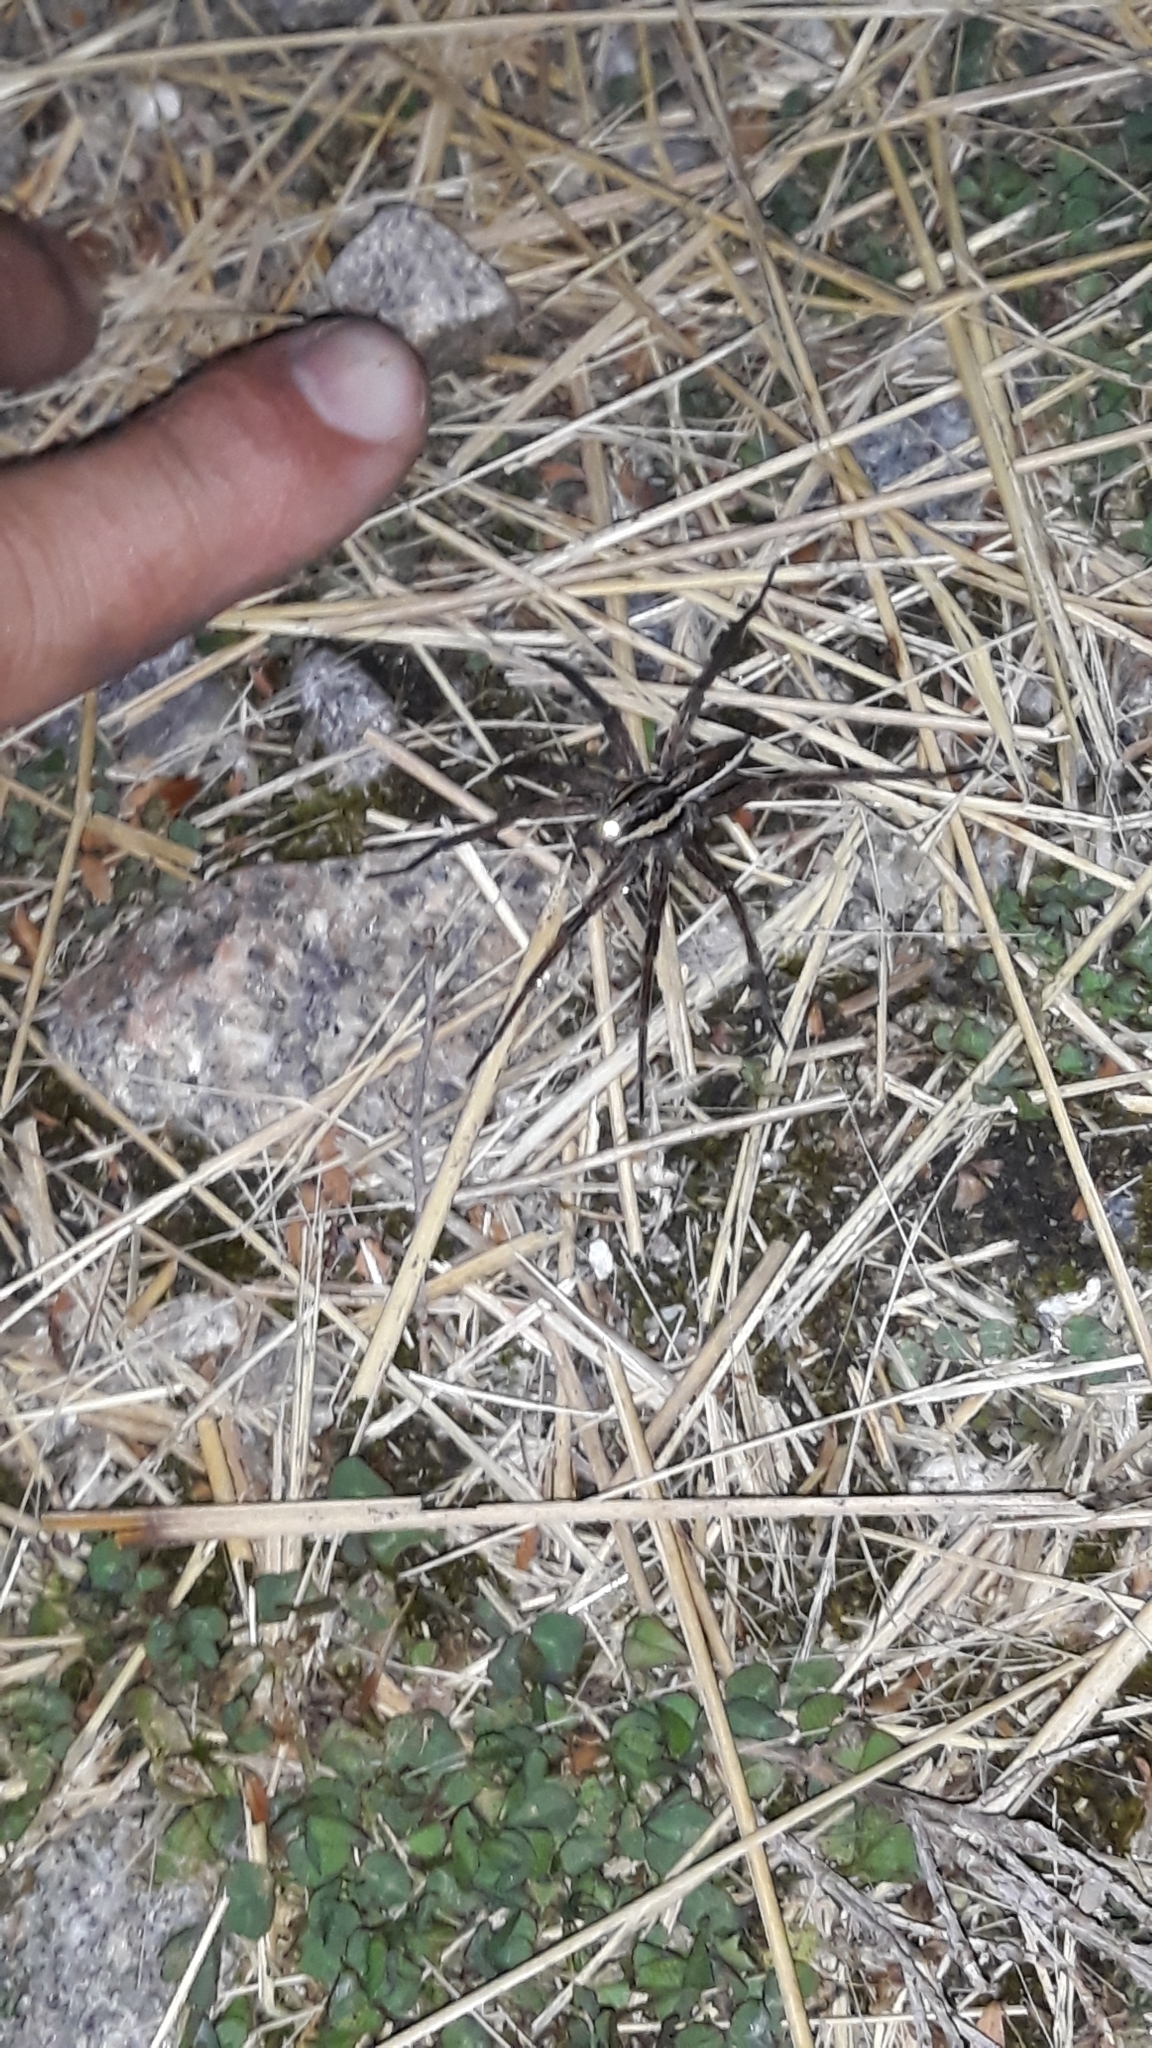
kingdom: Animalia
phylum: Arthropoda
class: Arachnida
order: Araneae
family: Pisauridae
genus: Dolomedes
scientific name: Dolomedes minor
